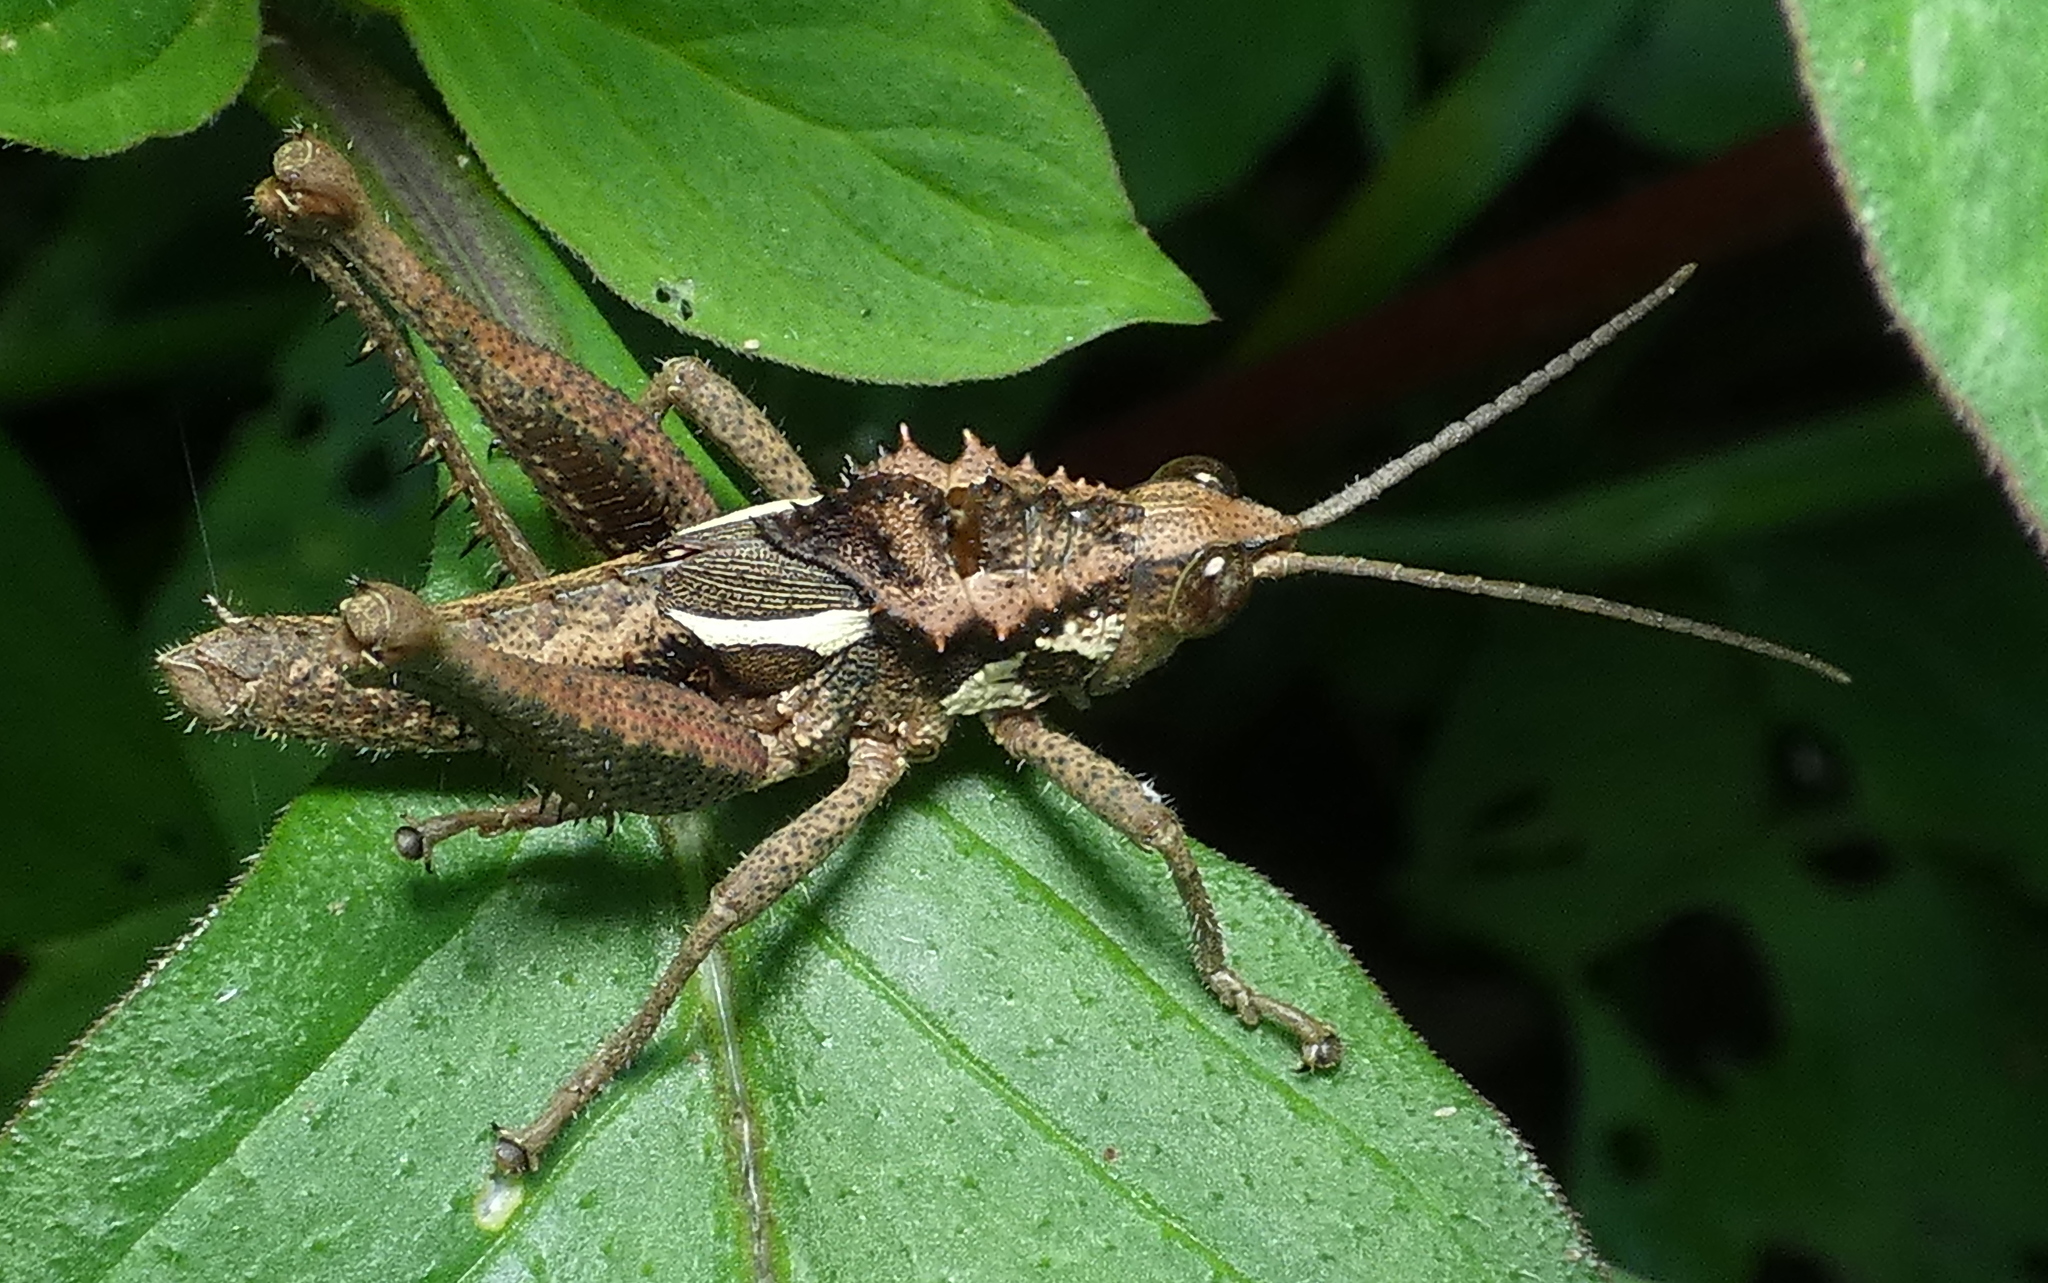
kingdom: Animalia
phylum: Arthropoda
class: Insecta
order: Orthoptera
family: Romaleidae
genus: Helionotus
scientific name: Helionotus mirabilis
